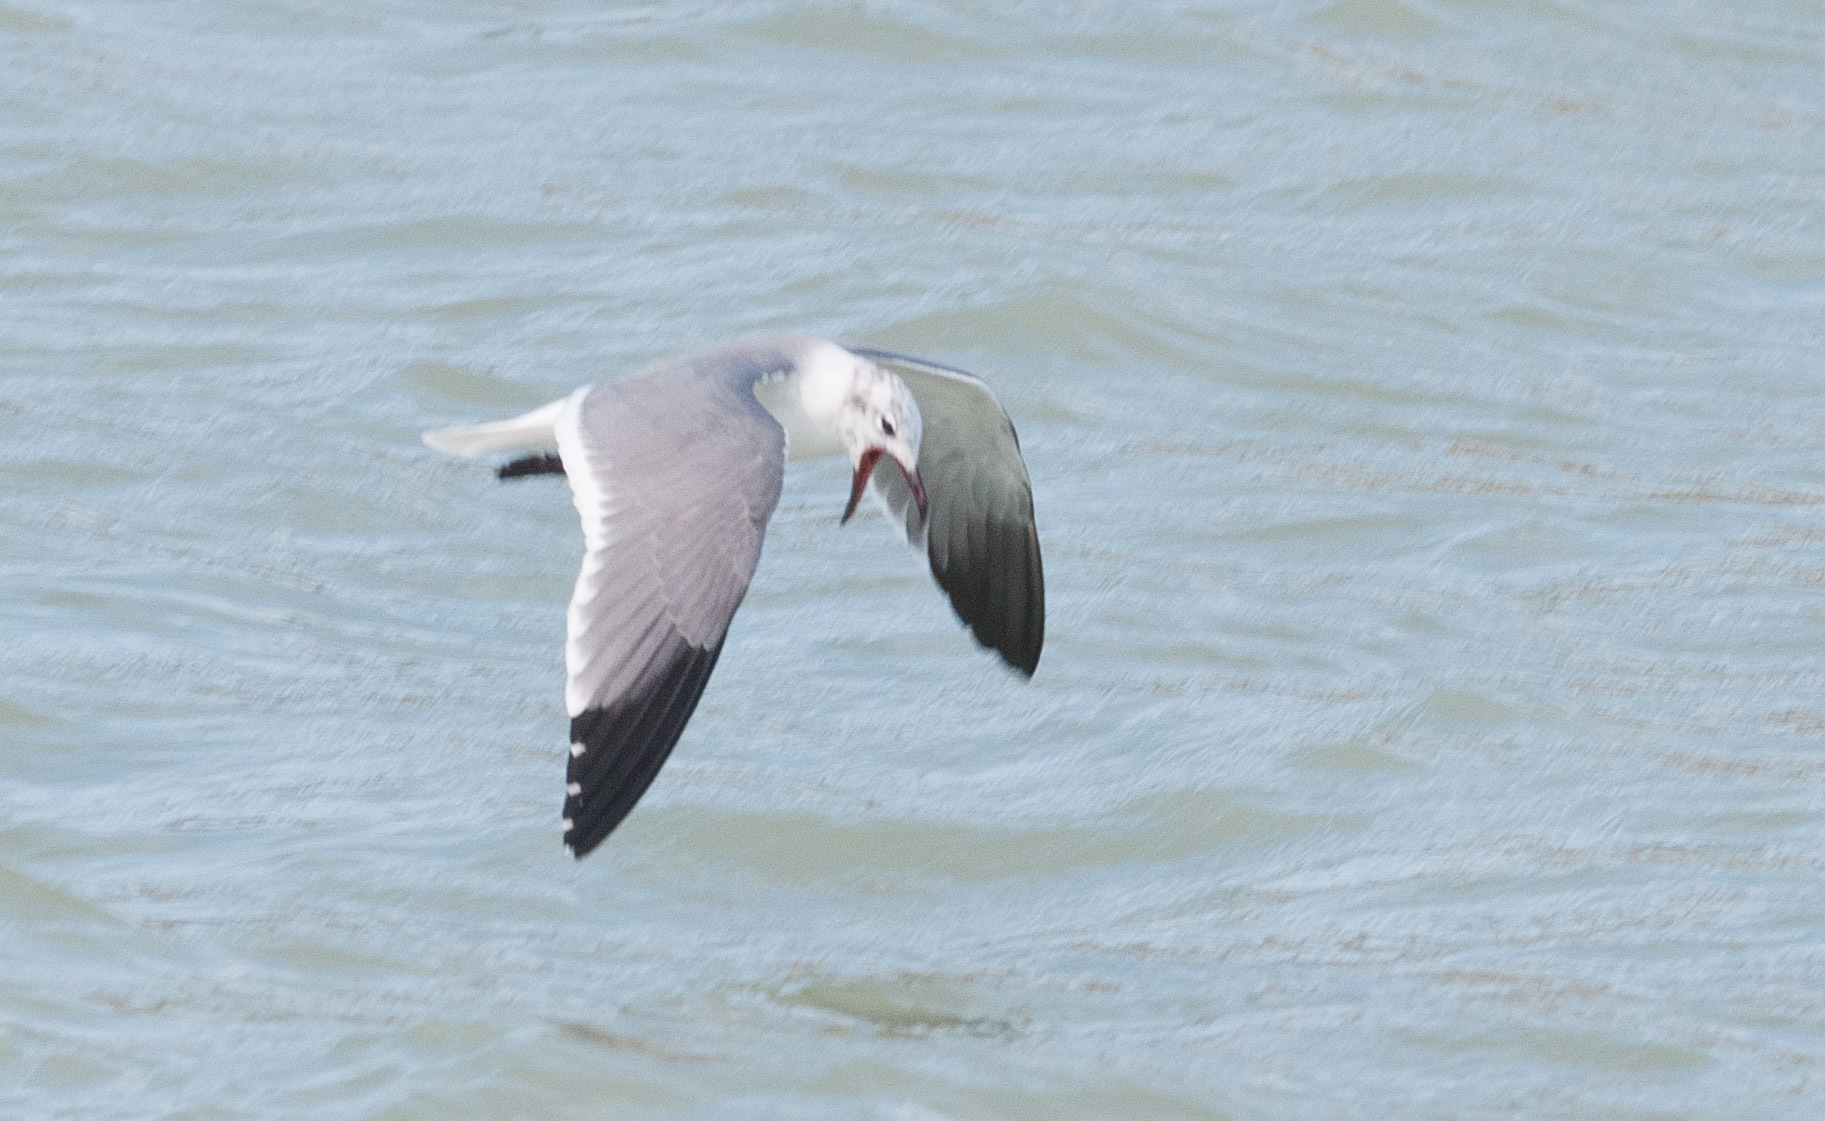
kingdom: Animalia
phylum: Chordata
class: Aves
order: Charadriiformes
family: Laridae
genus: Leucophaeus
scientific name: Leucophaeus atricilla
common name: Laughing gull
